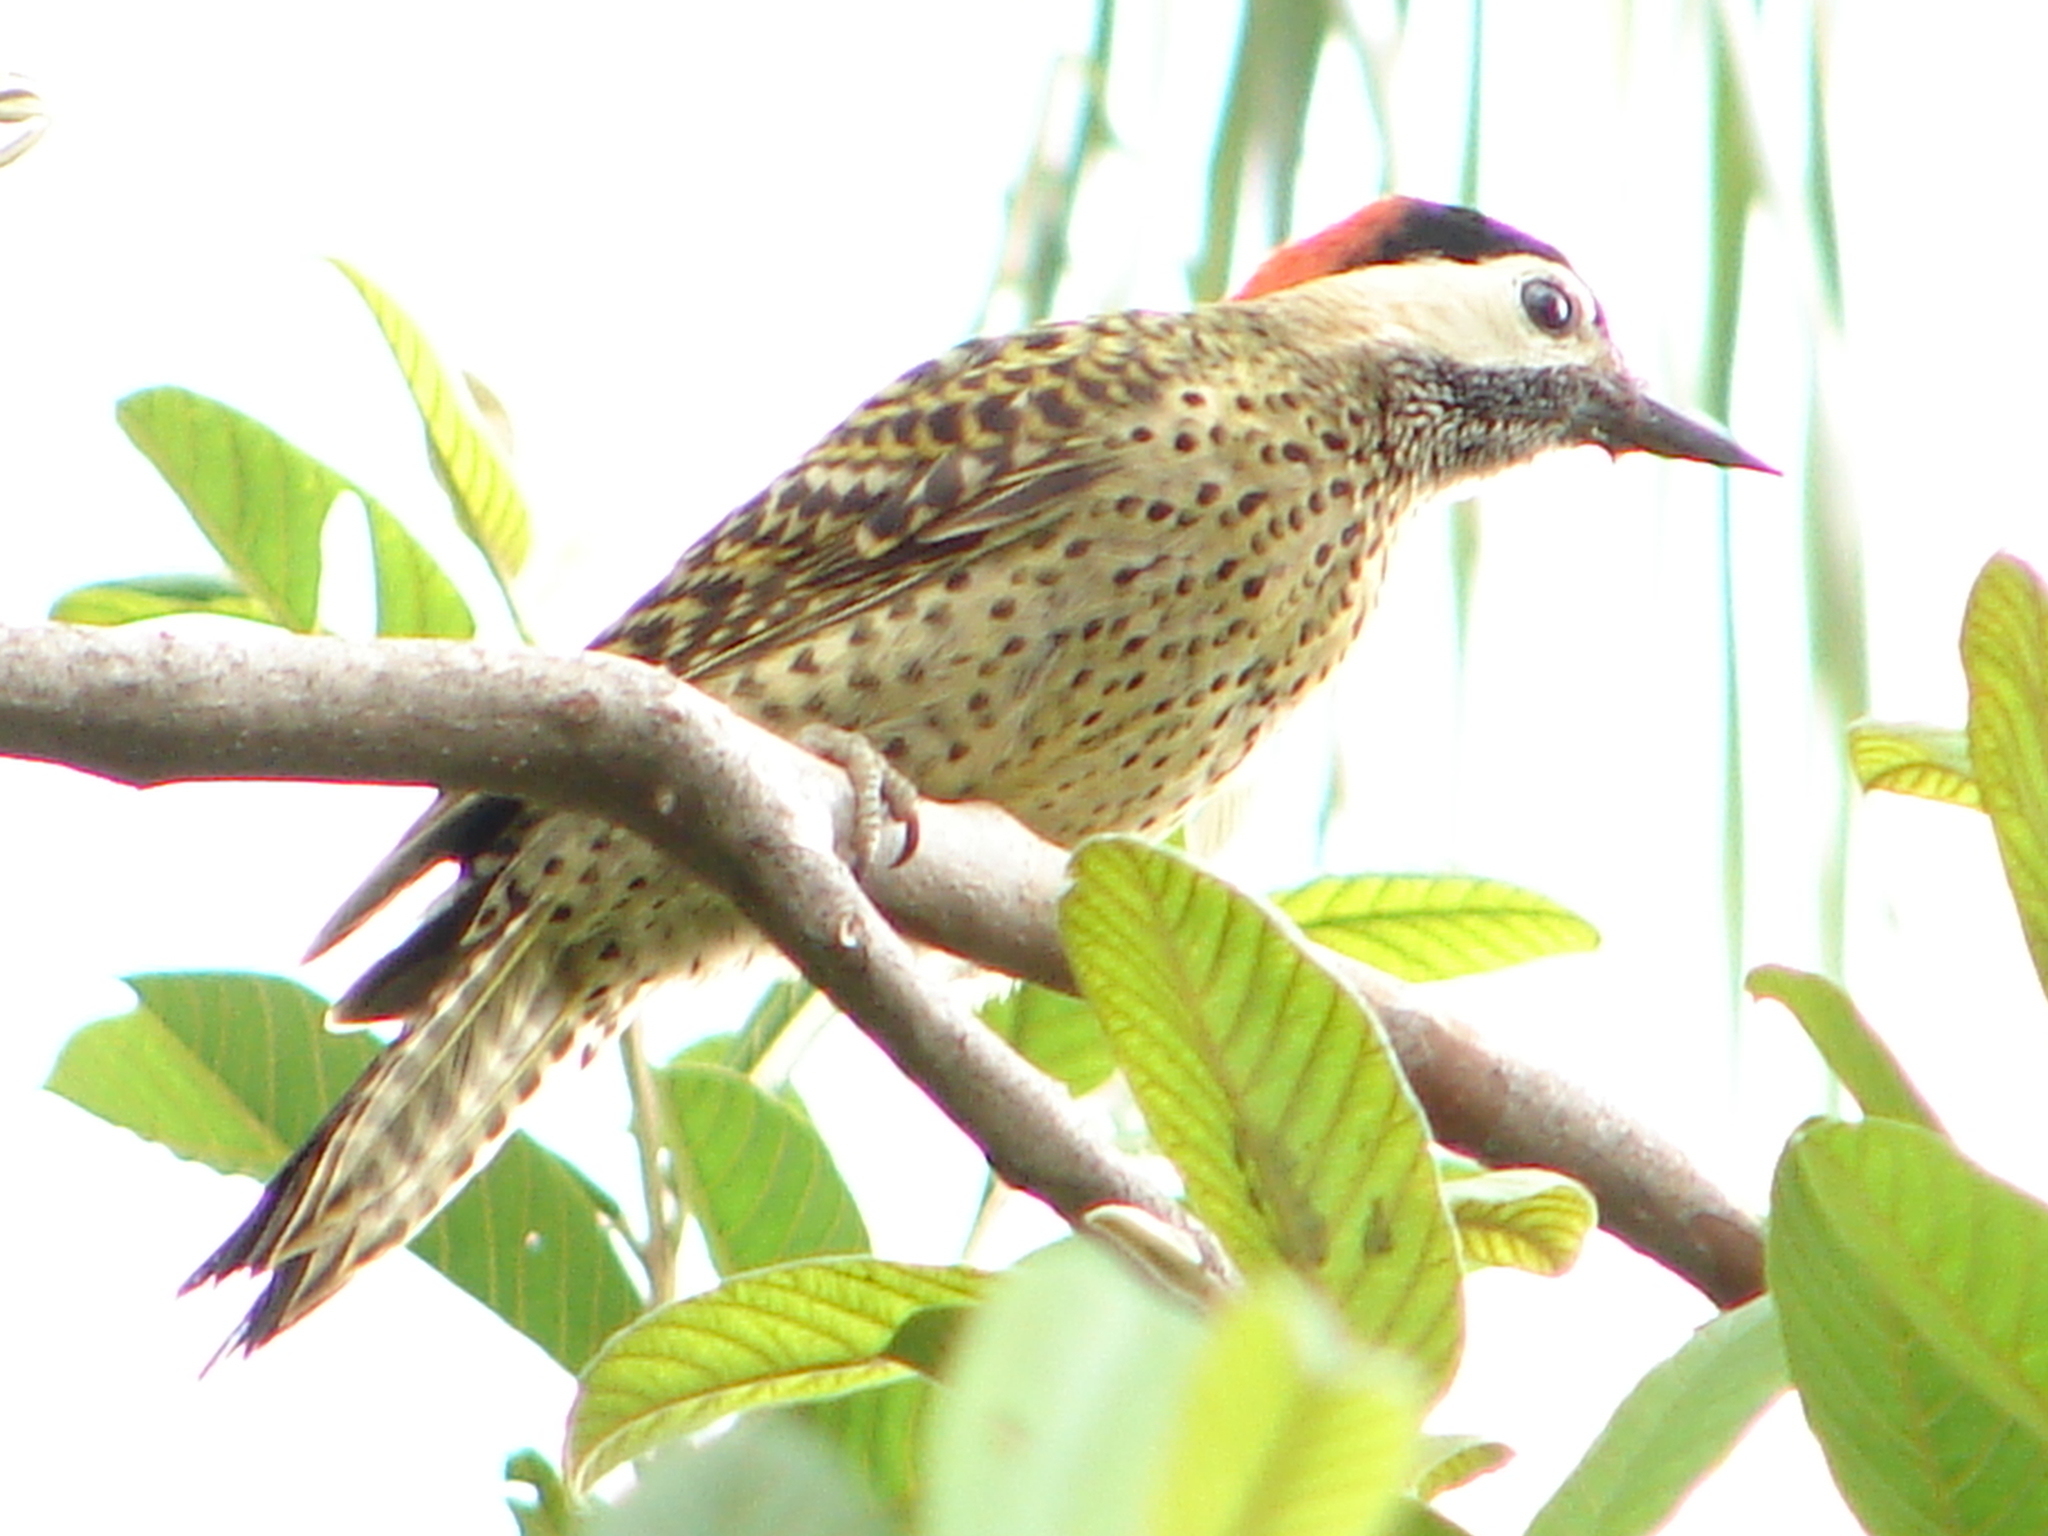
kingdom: Animalia
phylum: Chordata
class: Aves
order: Piciformes
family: Picidae
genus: Colaptes
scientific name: Colaptes melanochloros
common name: Green-barred woodpecker
